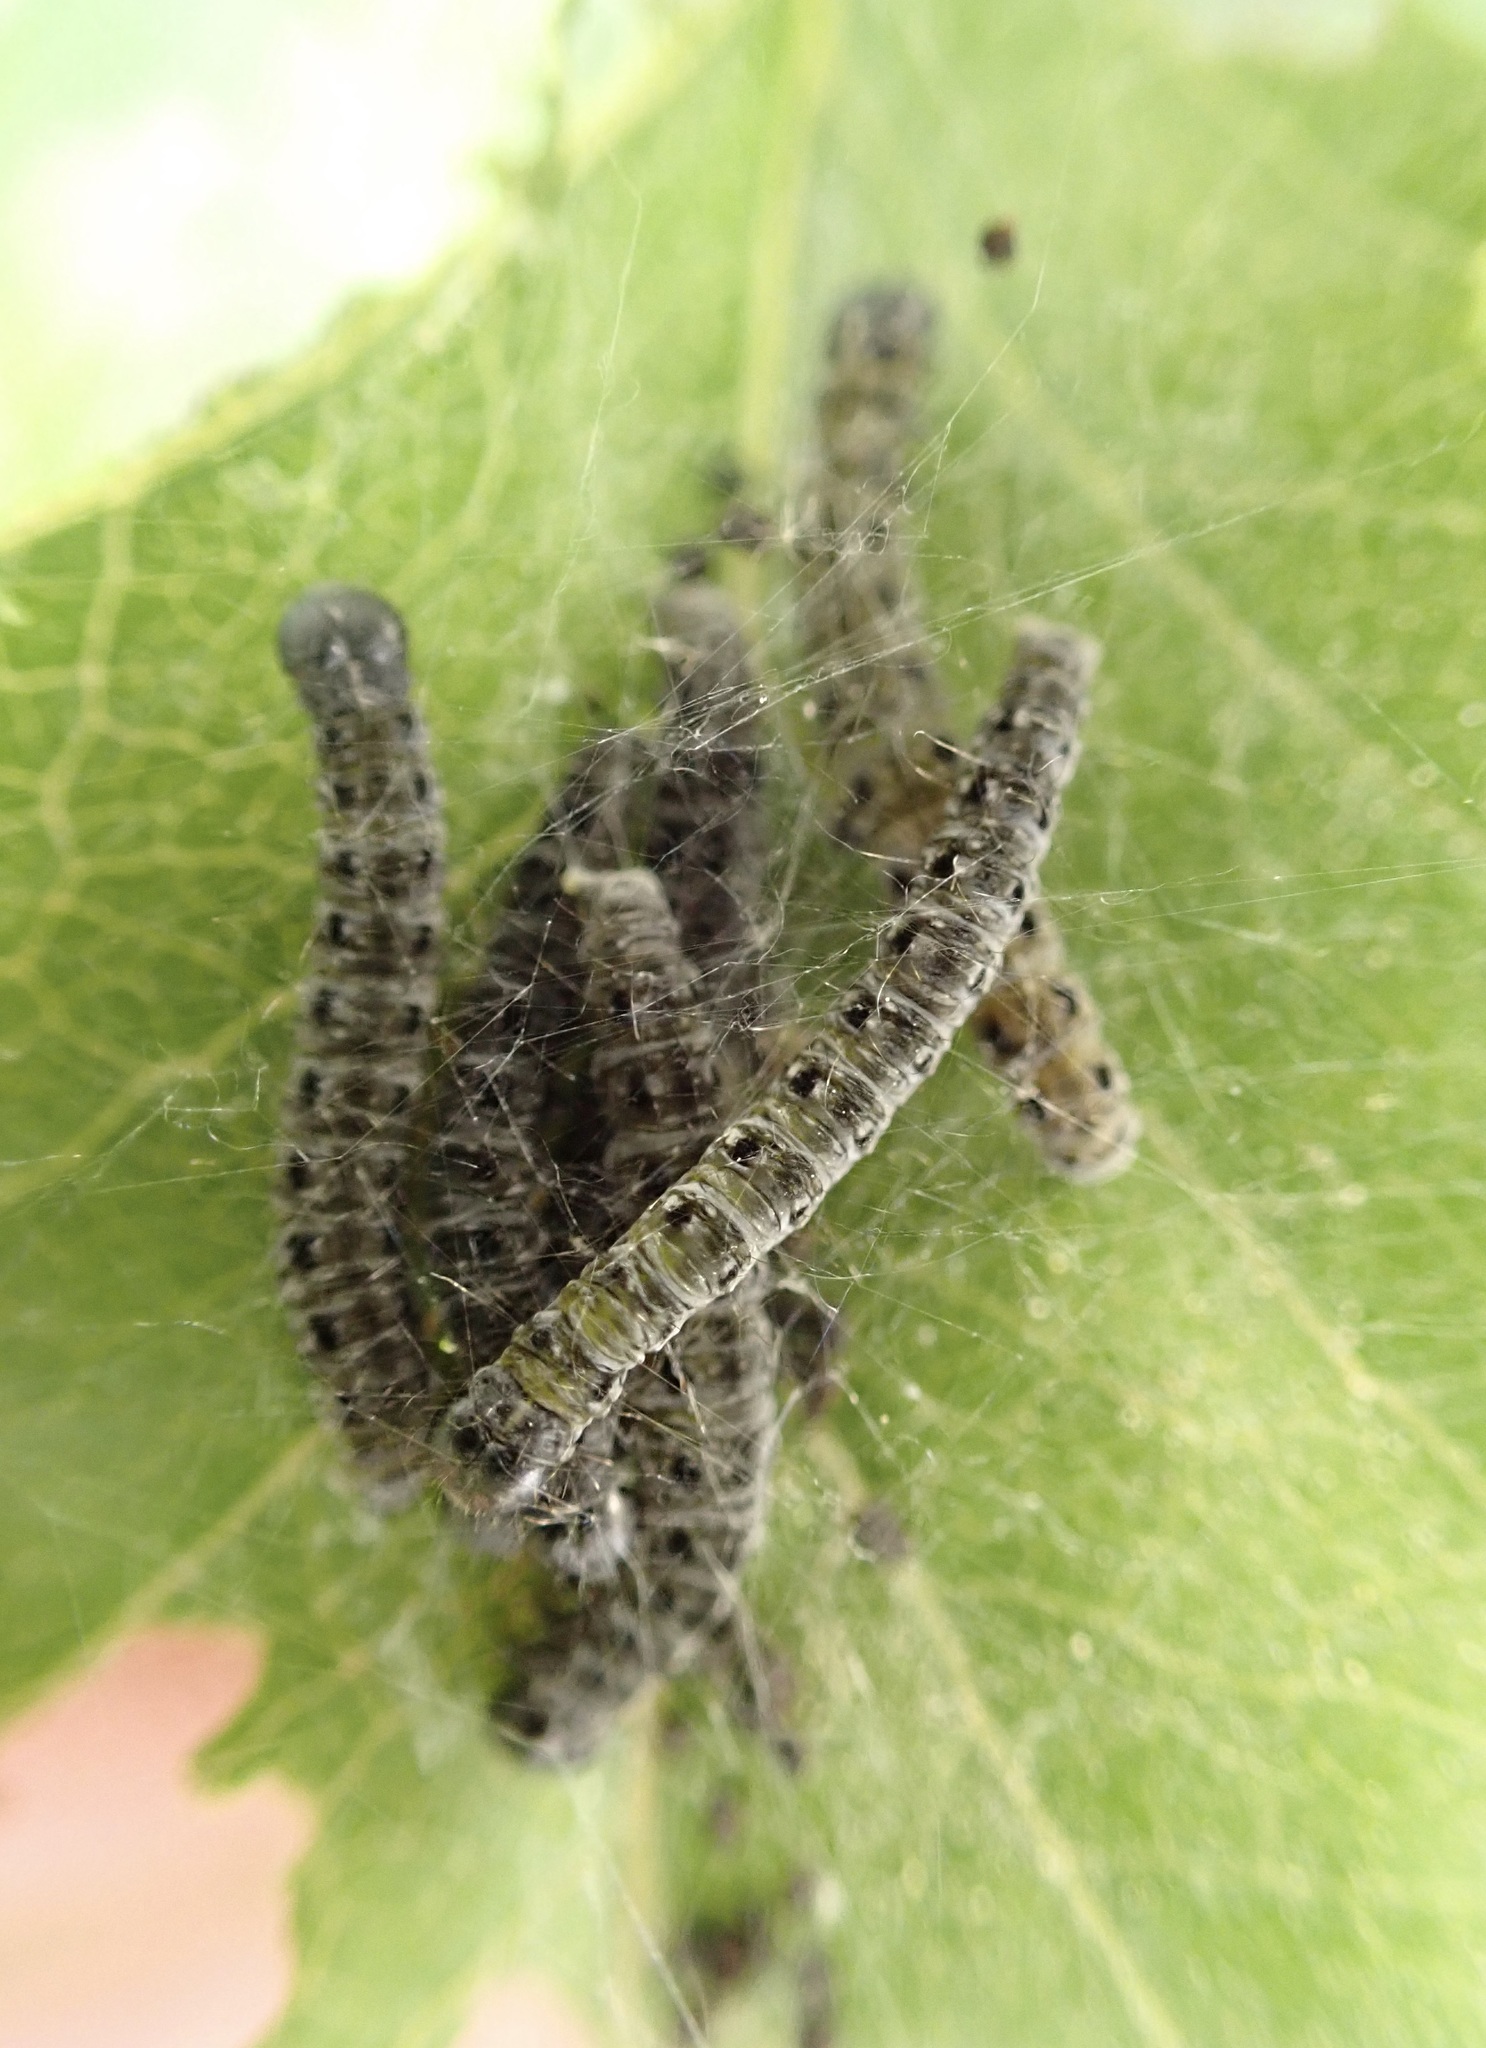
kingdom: Animalia
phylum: Arthropoda
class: Insecta
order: Lepidoptera
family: Yponomeutidae
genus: Yponomeuta
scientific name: Yponomeuta padella
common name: Orchard ermine
